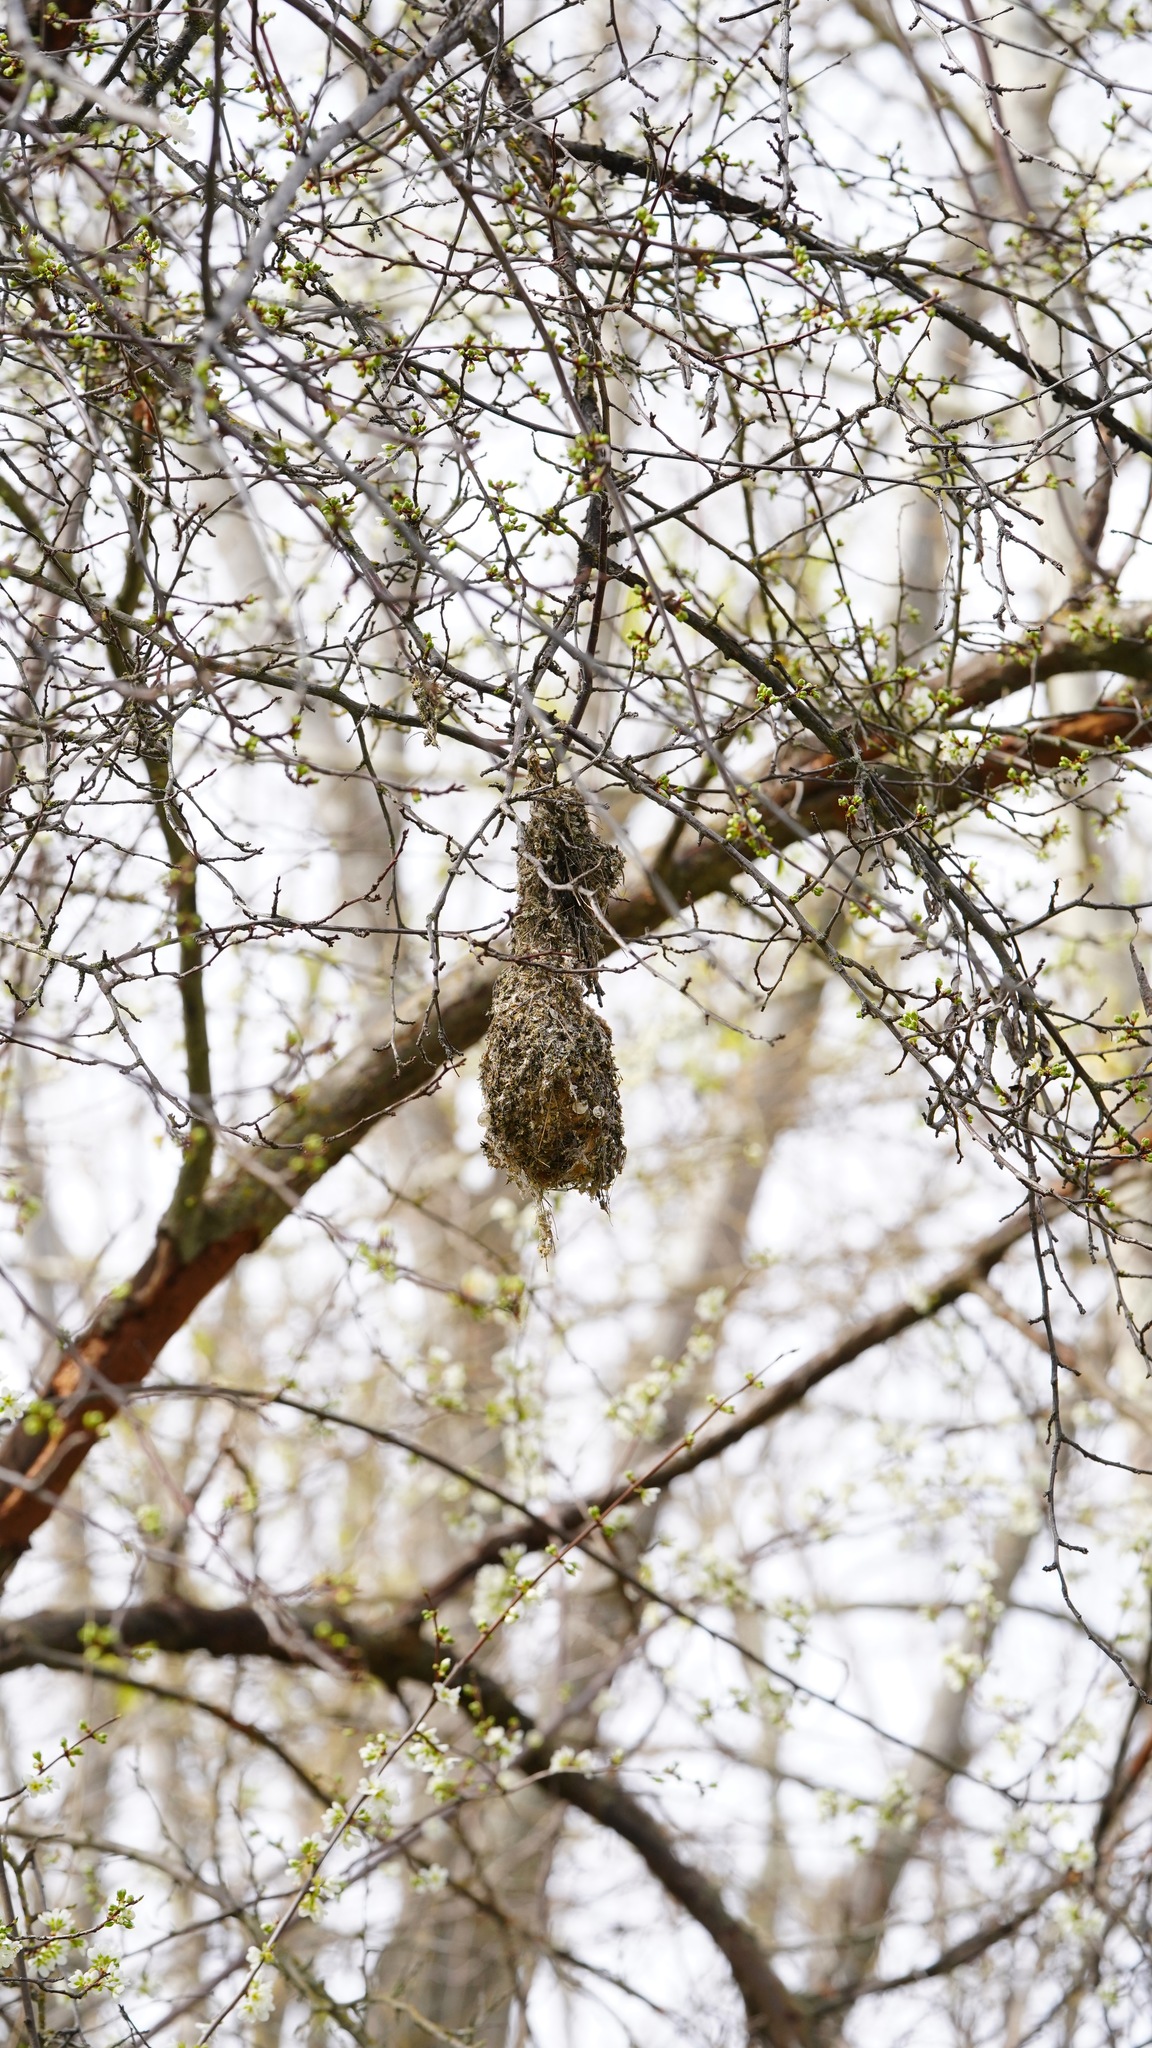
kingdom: Animalia
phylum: Chordata
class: Aves
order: Passeriformes
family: Aegithalidae
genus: Psaltriparus
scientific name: Psaltriparus minimus
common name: American bushtit
